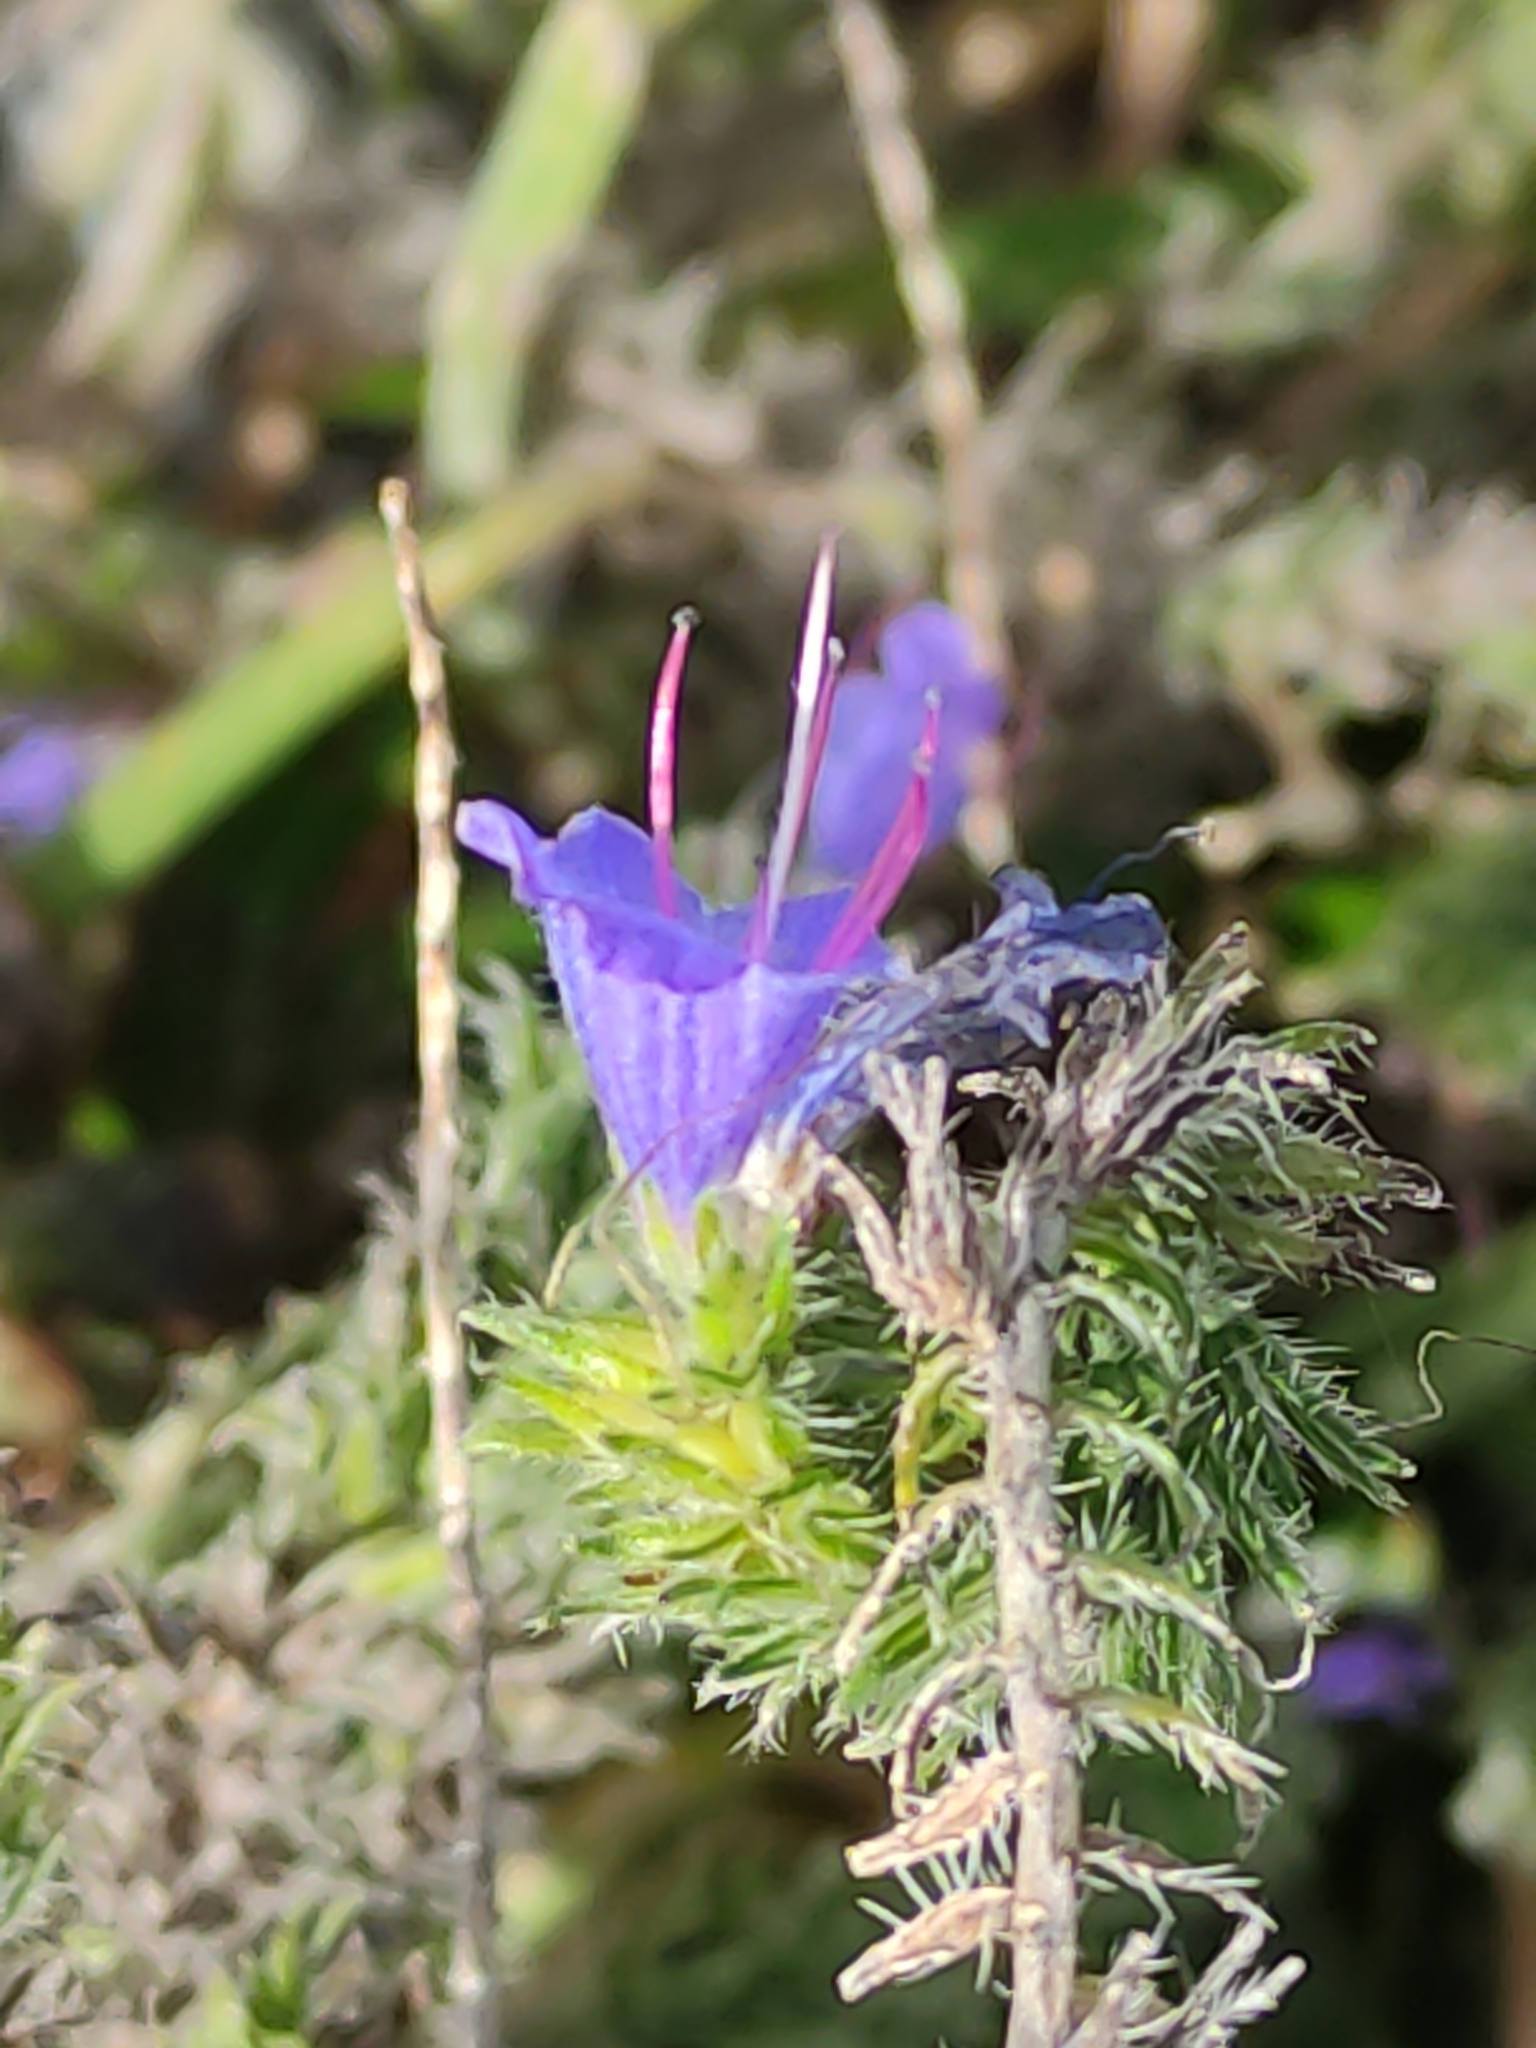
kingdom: Plantae
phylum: Tracheophyta
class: Magnoliopsida
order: Boraginales
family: Boraginaceae
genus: Echium
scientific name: Echium vulgare
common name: Common viper's bugloss
